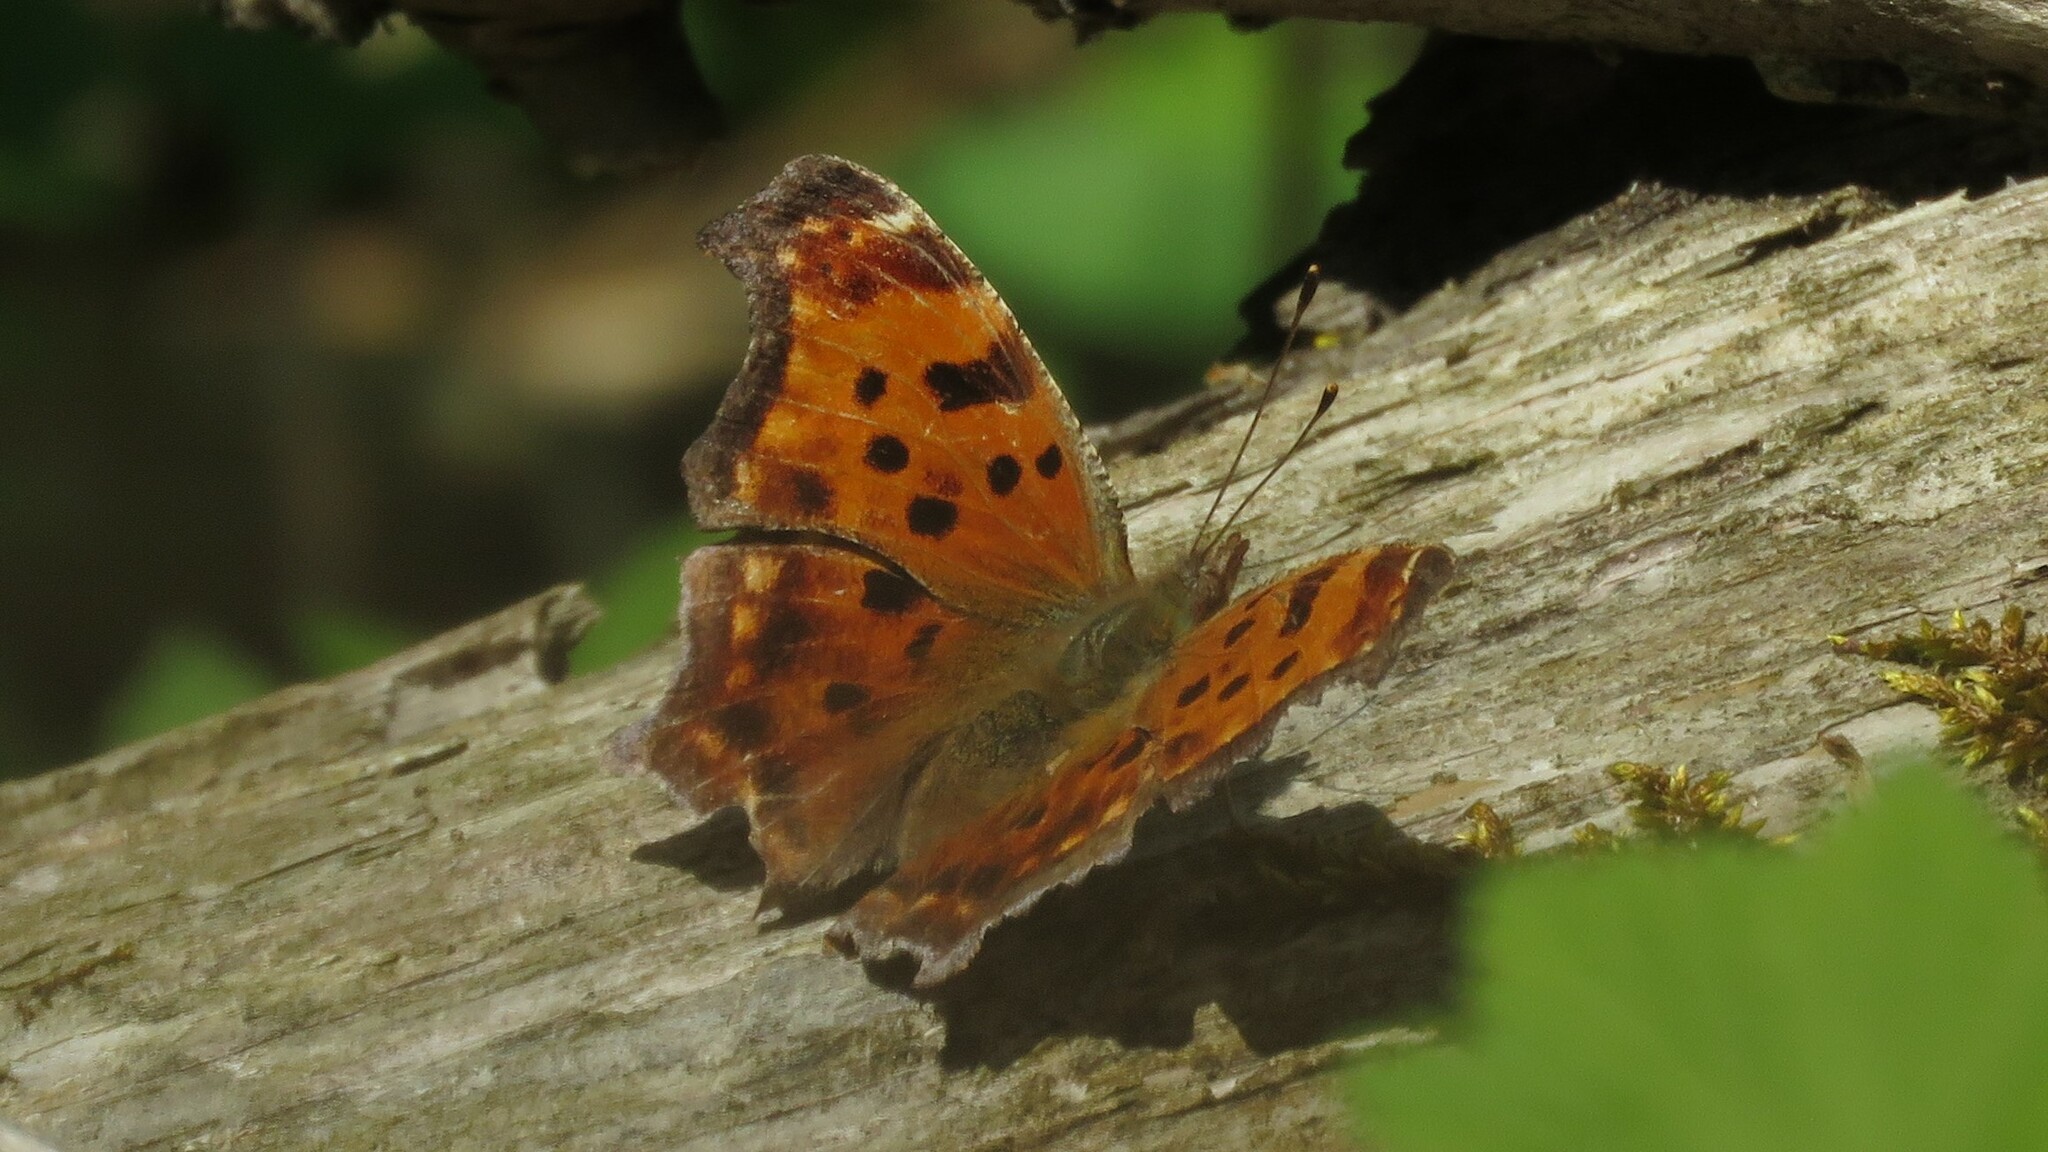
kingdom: Animalia
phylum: Arthropoda
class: Insecta
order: Lepidoptera
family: Nymphalidae
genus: Polygonia
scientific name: Polygonia comma
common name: Eastern comma
